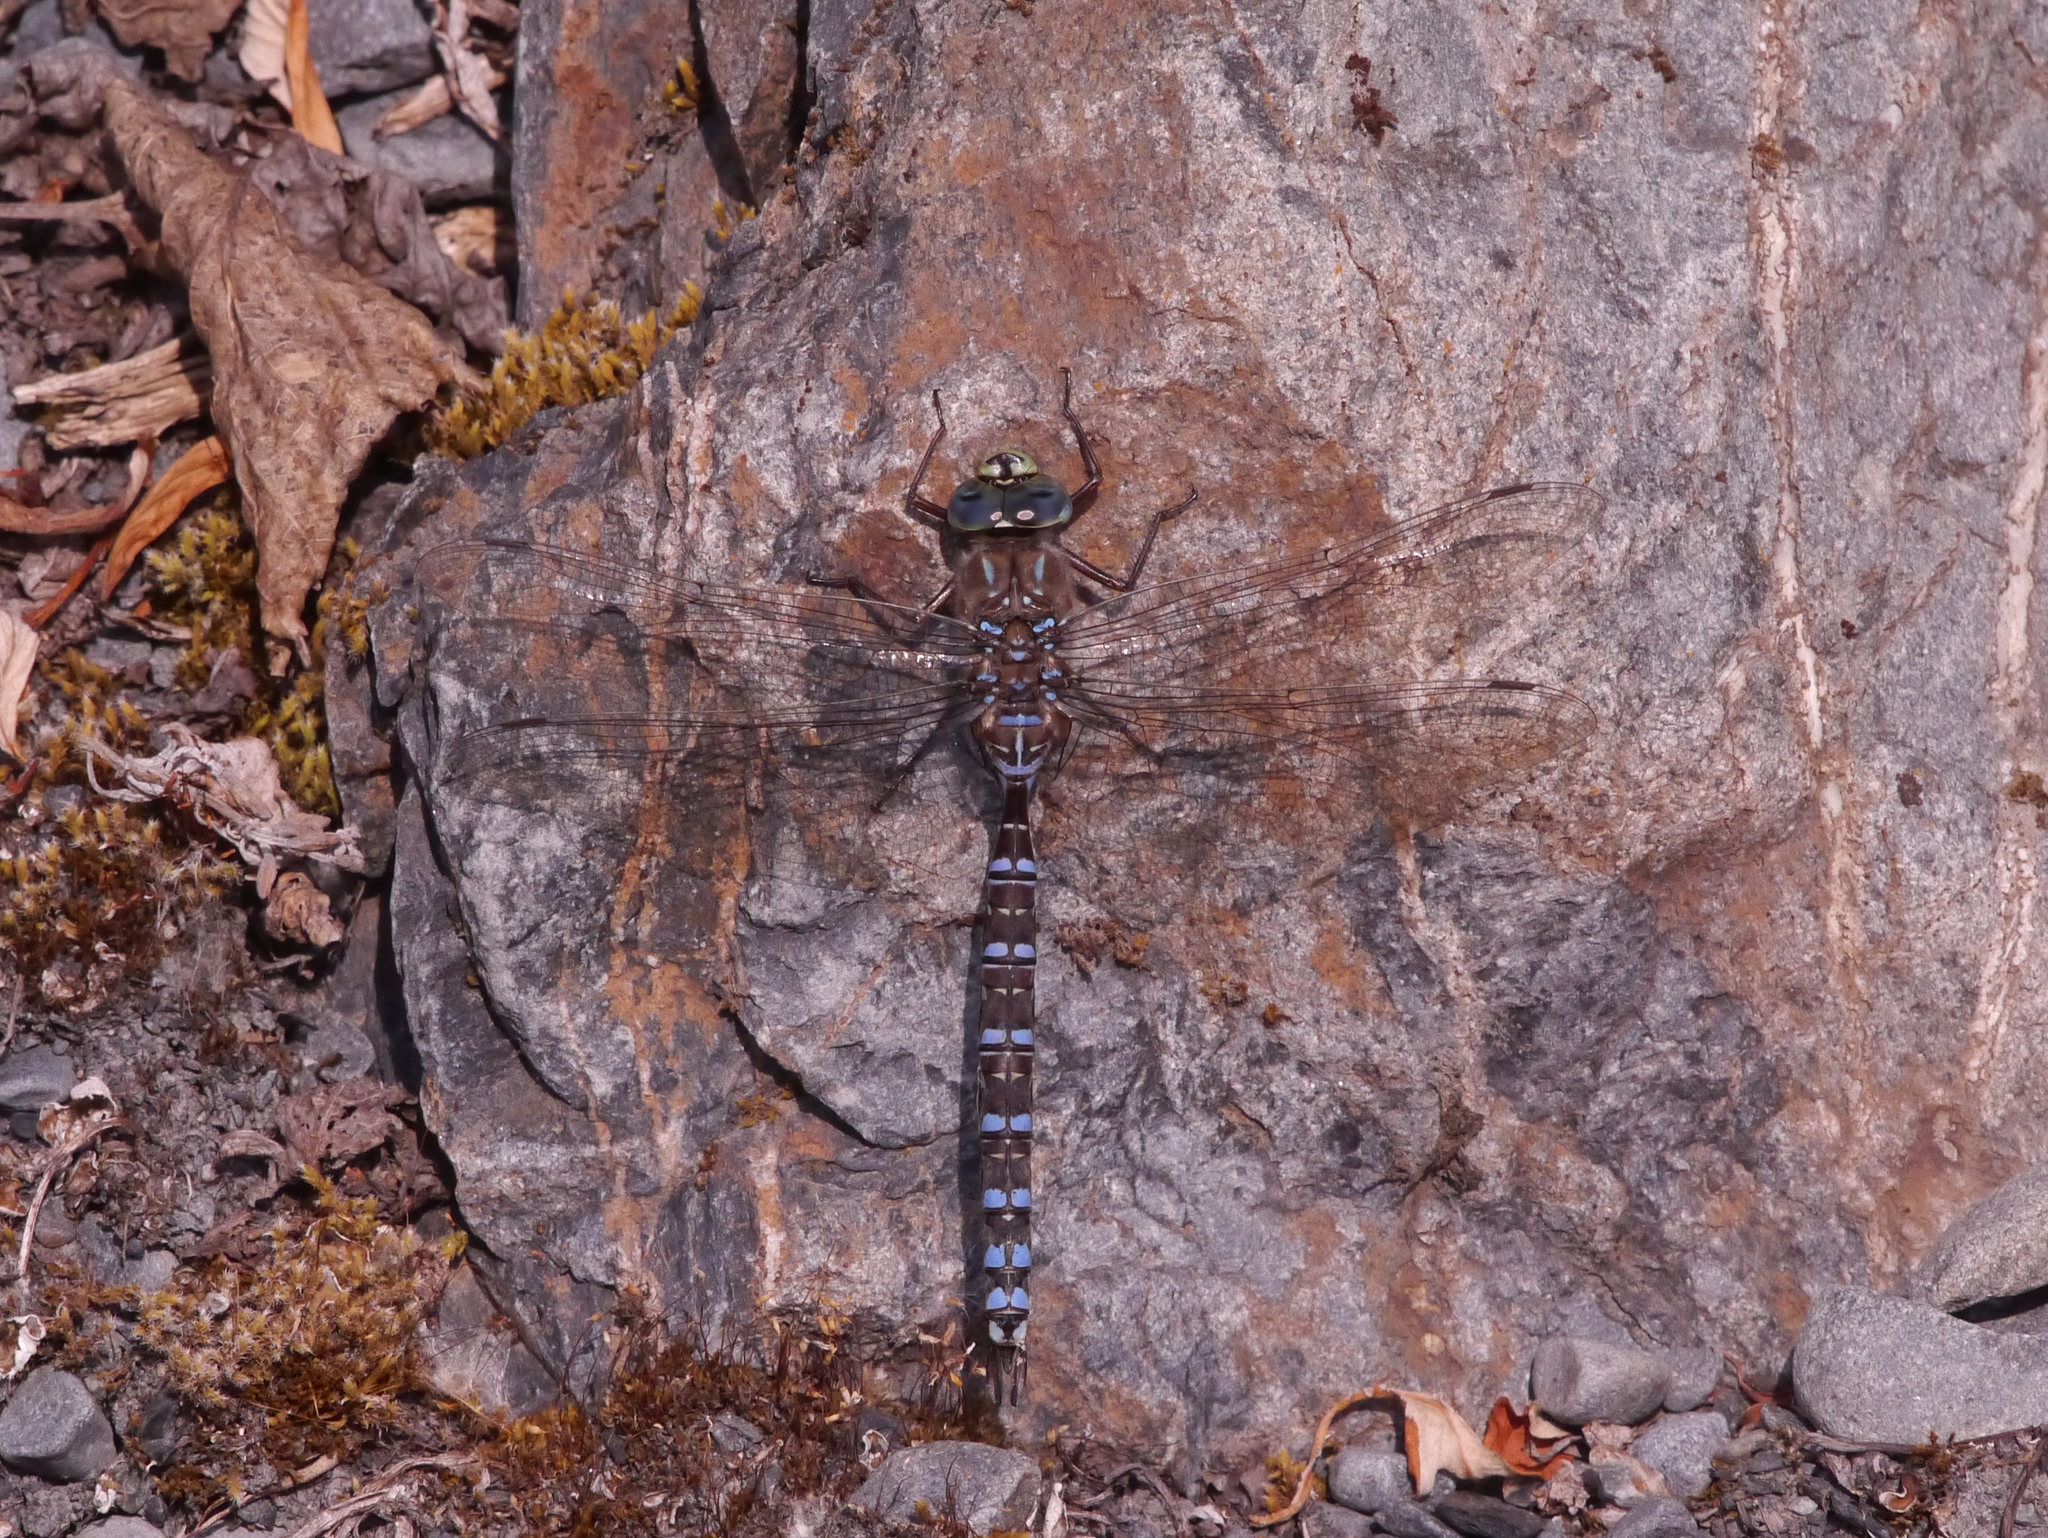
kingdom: Animalia
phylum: Arthropoda
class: Insecta
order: Odonata
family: Aeshnidae
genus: Aeshna
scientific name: Aeshna eremita
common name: Lake darner
